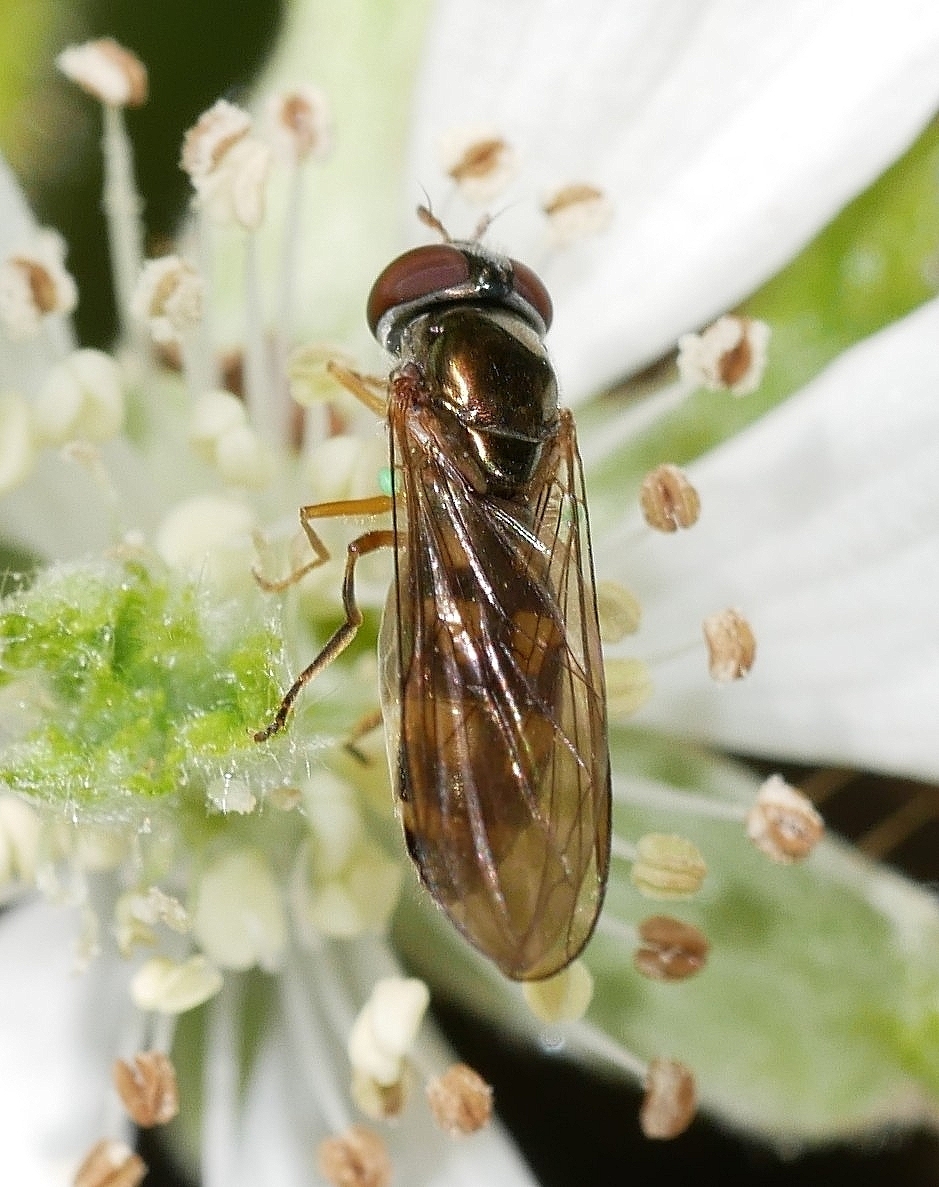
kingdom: Animalia
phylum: Arthropoda
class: Insecta
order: Diptera
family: Syrphidae
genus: Melanostoma
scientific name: Melanostoma mellina
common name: Hover fly
